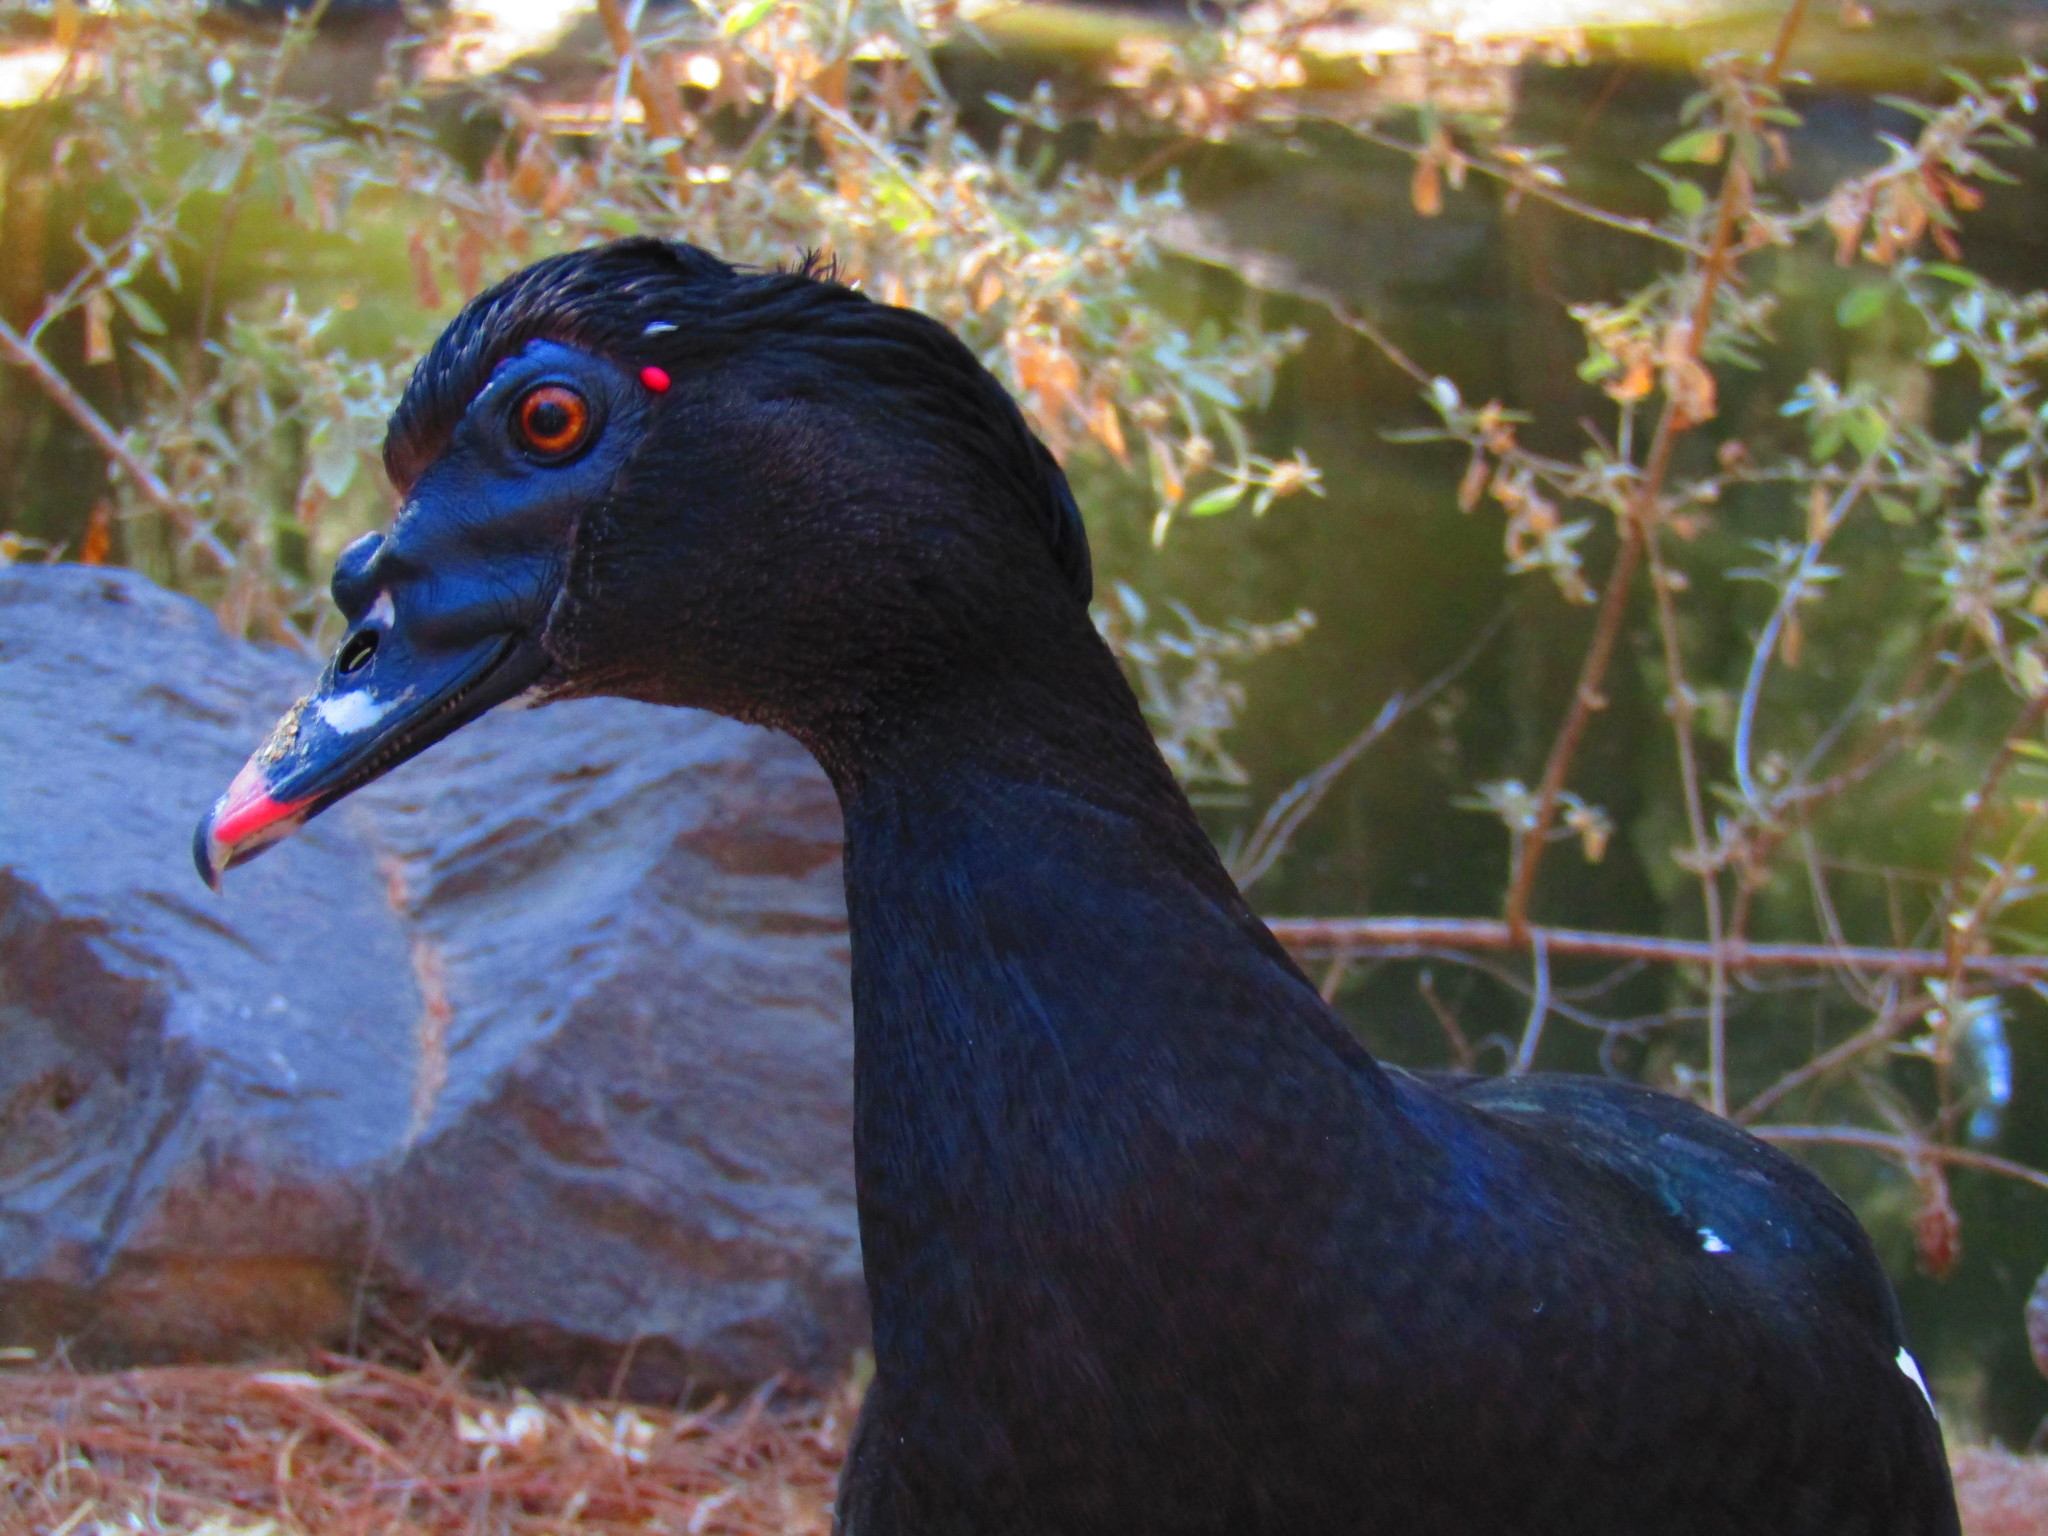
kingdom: Animalia
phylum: Chordata
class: Aves
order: Anseriformes
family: Anatidae
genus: Cairina
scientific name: Cairina moschata
